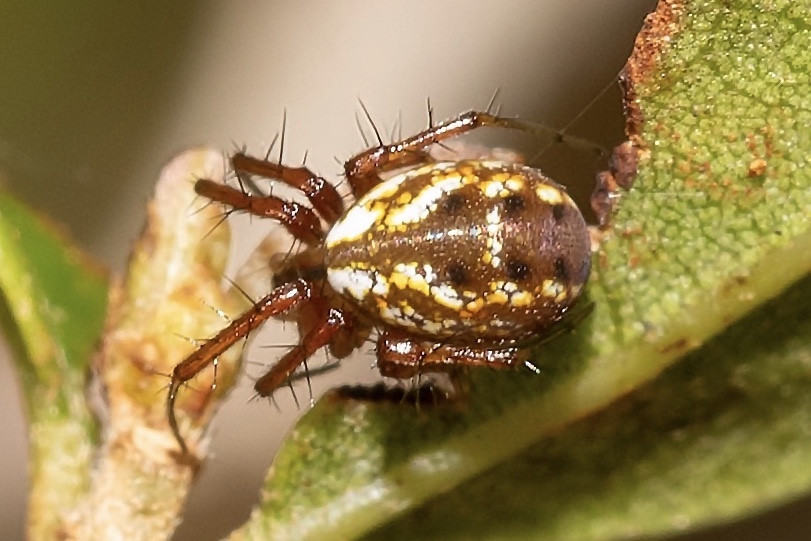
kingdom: Animalia
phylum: Arthropoda
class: Arachnida
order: Araneae
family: Araneidae
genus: Mangora
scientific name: Mangora placida
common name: Tuft-legged orbweaver
